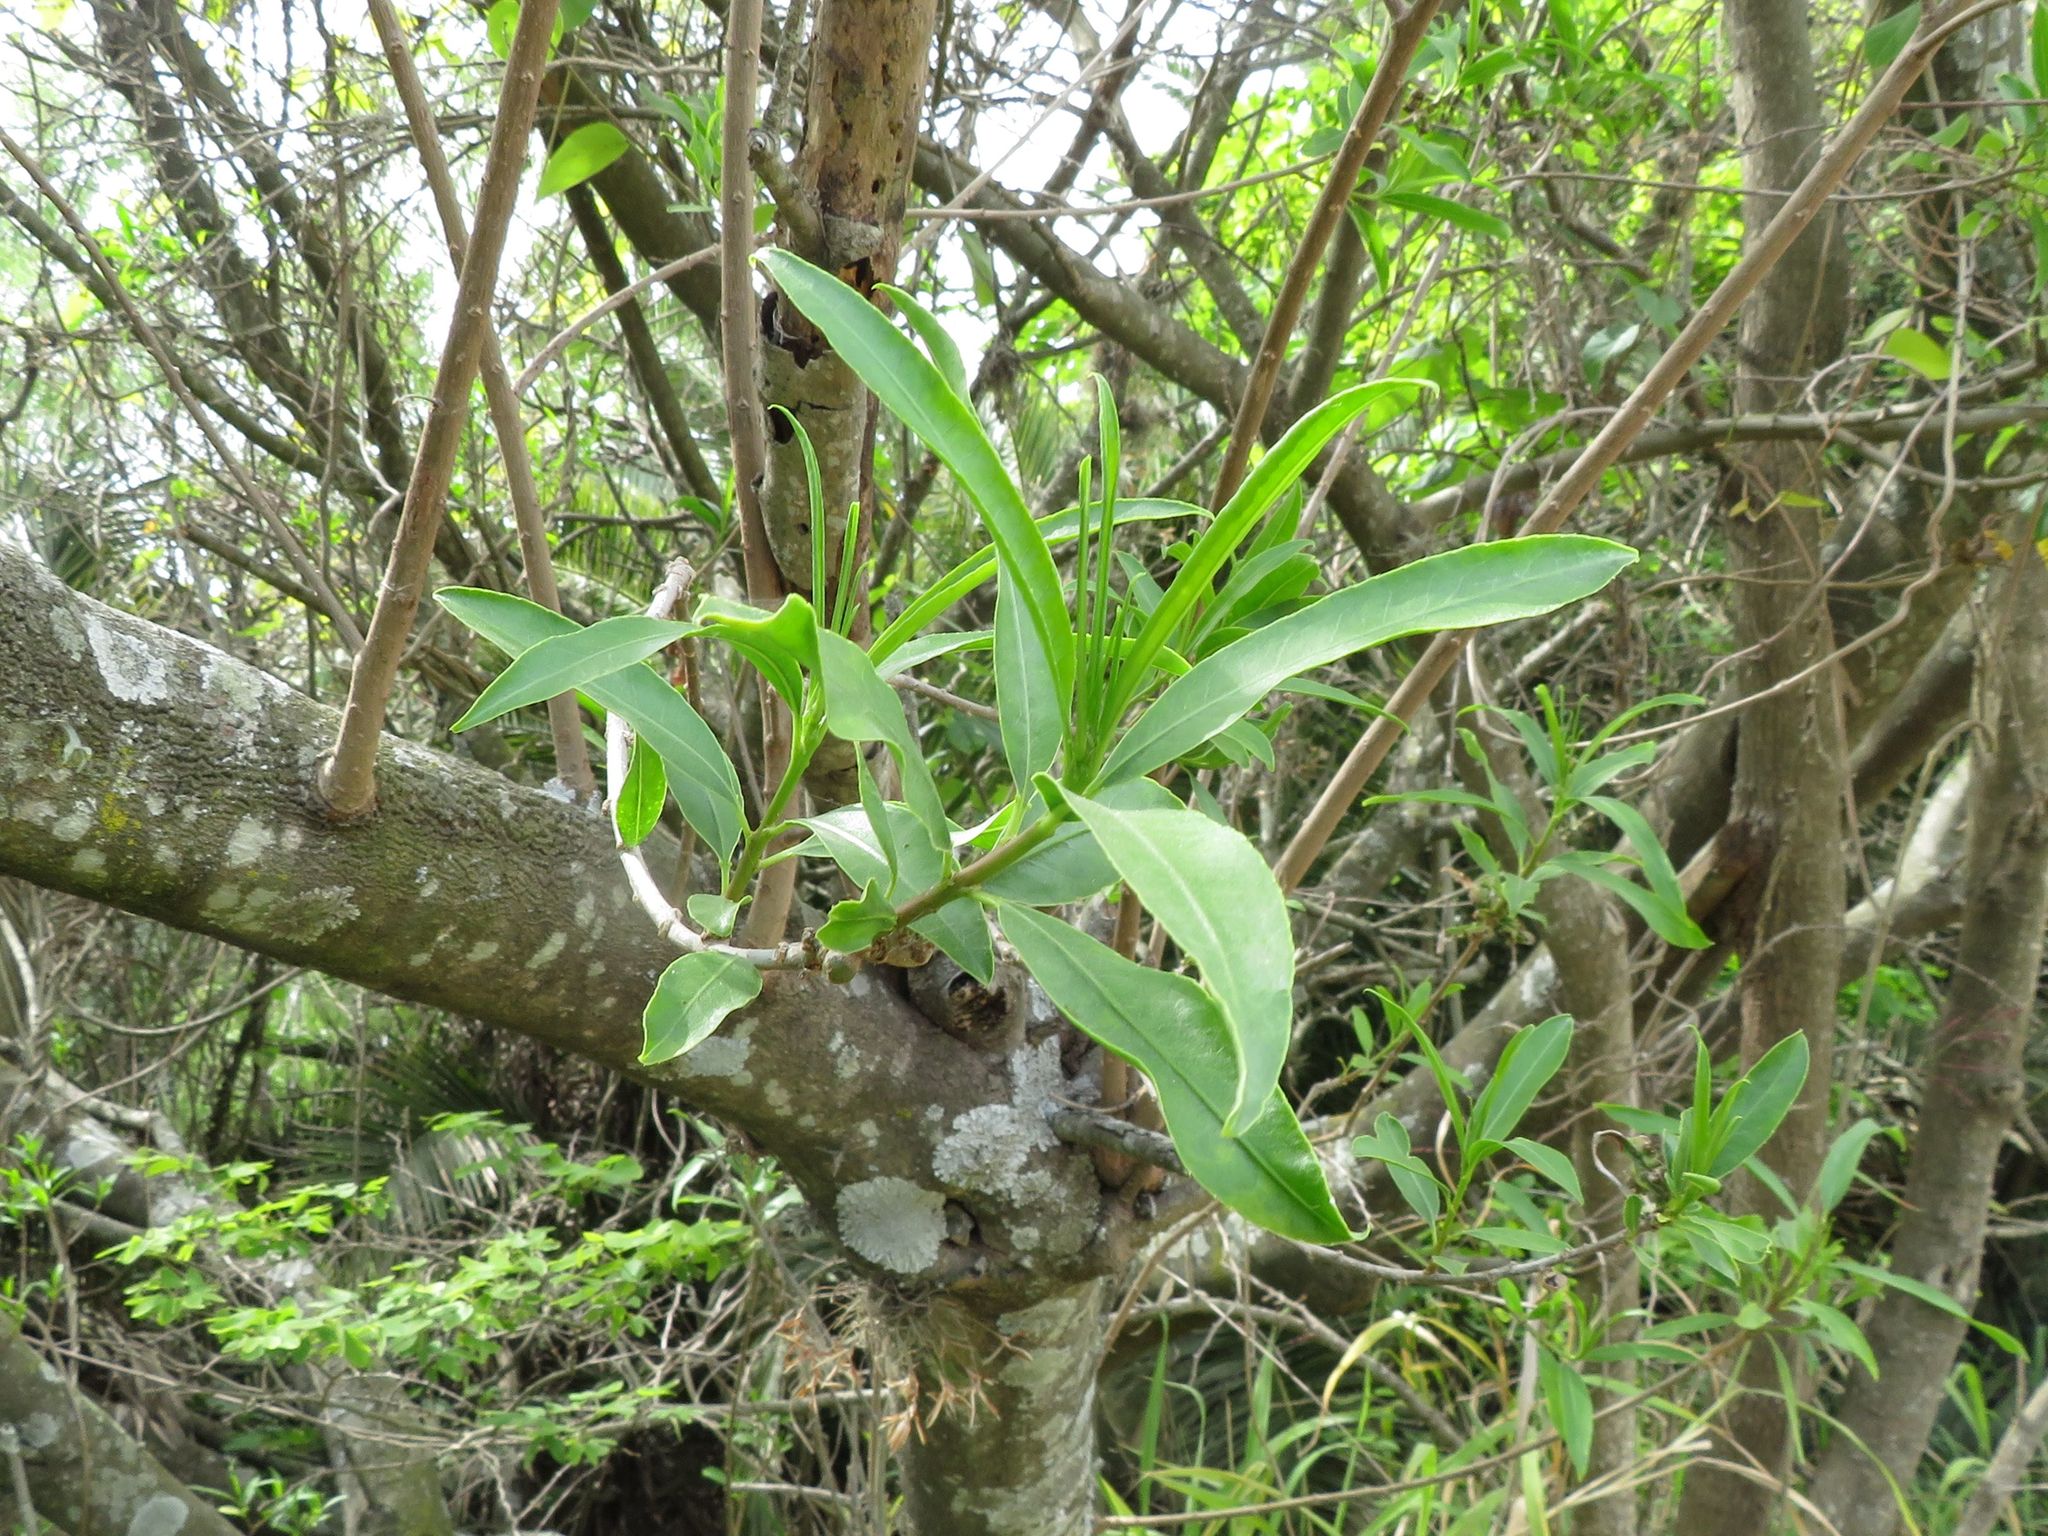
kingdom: Plantae
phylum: Tracheophyta
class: Magnoliopsida
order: Malpighiales
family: Euphorbiaceae
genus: Sapium
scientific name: Sapium haematospermum
